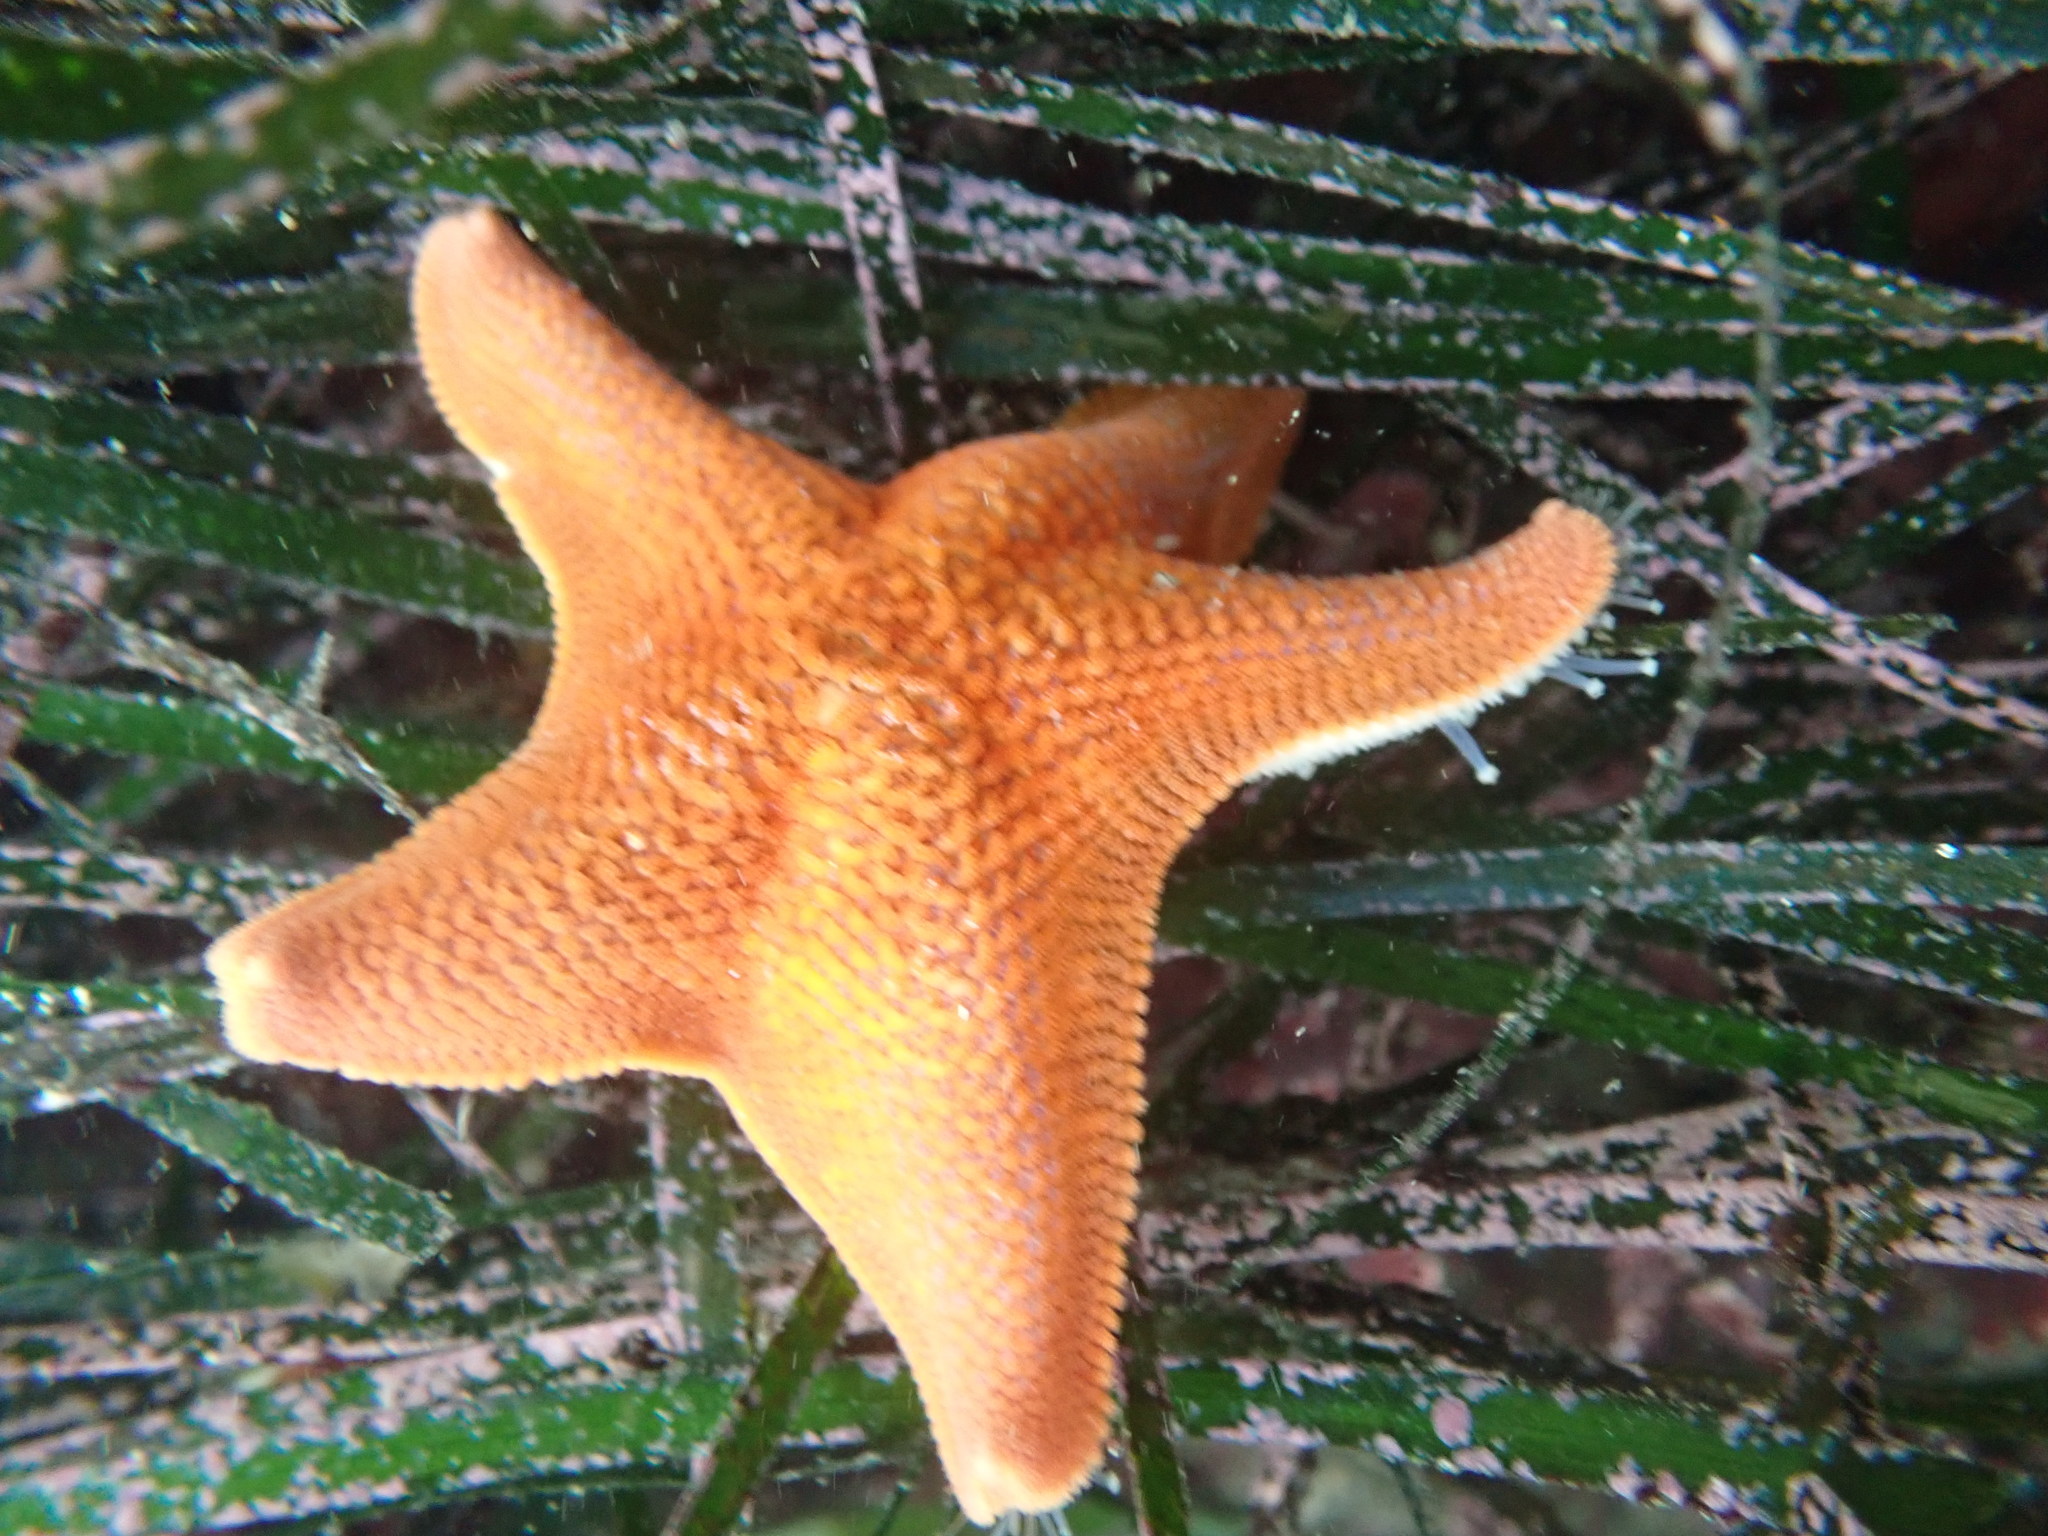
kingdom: Animalia
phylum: Echinodermata
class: Asteroidea
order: Valvatida
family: Asterinidae
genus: Patiria
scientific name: Patiria miniata
